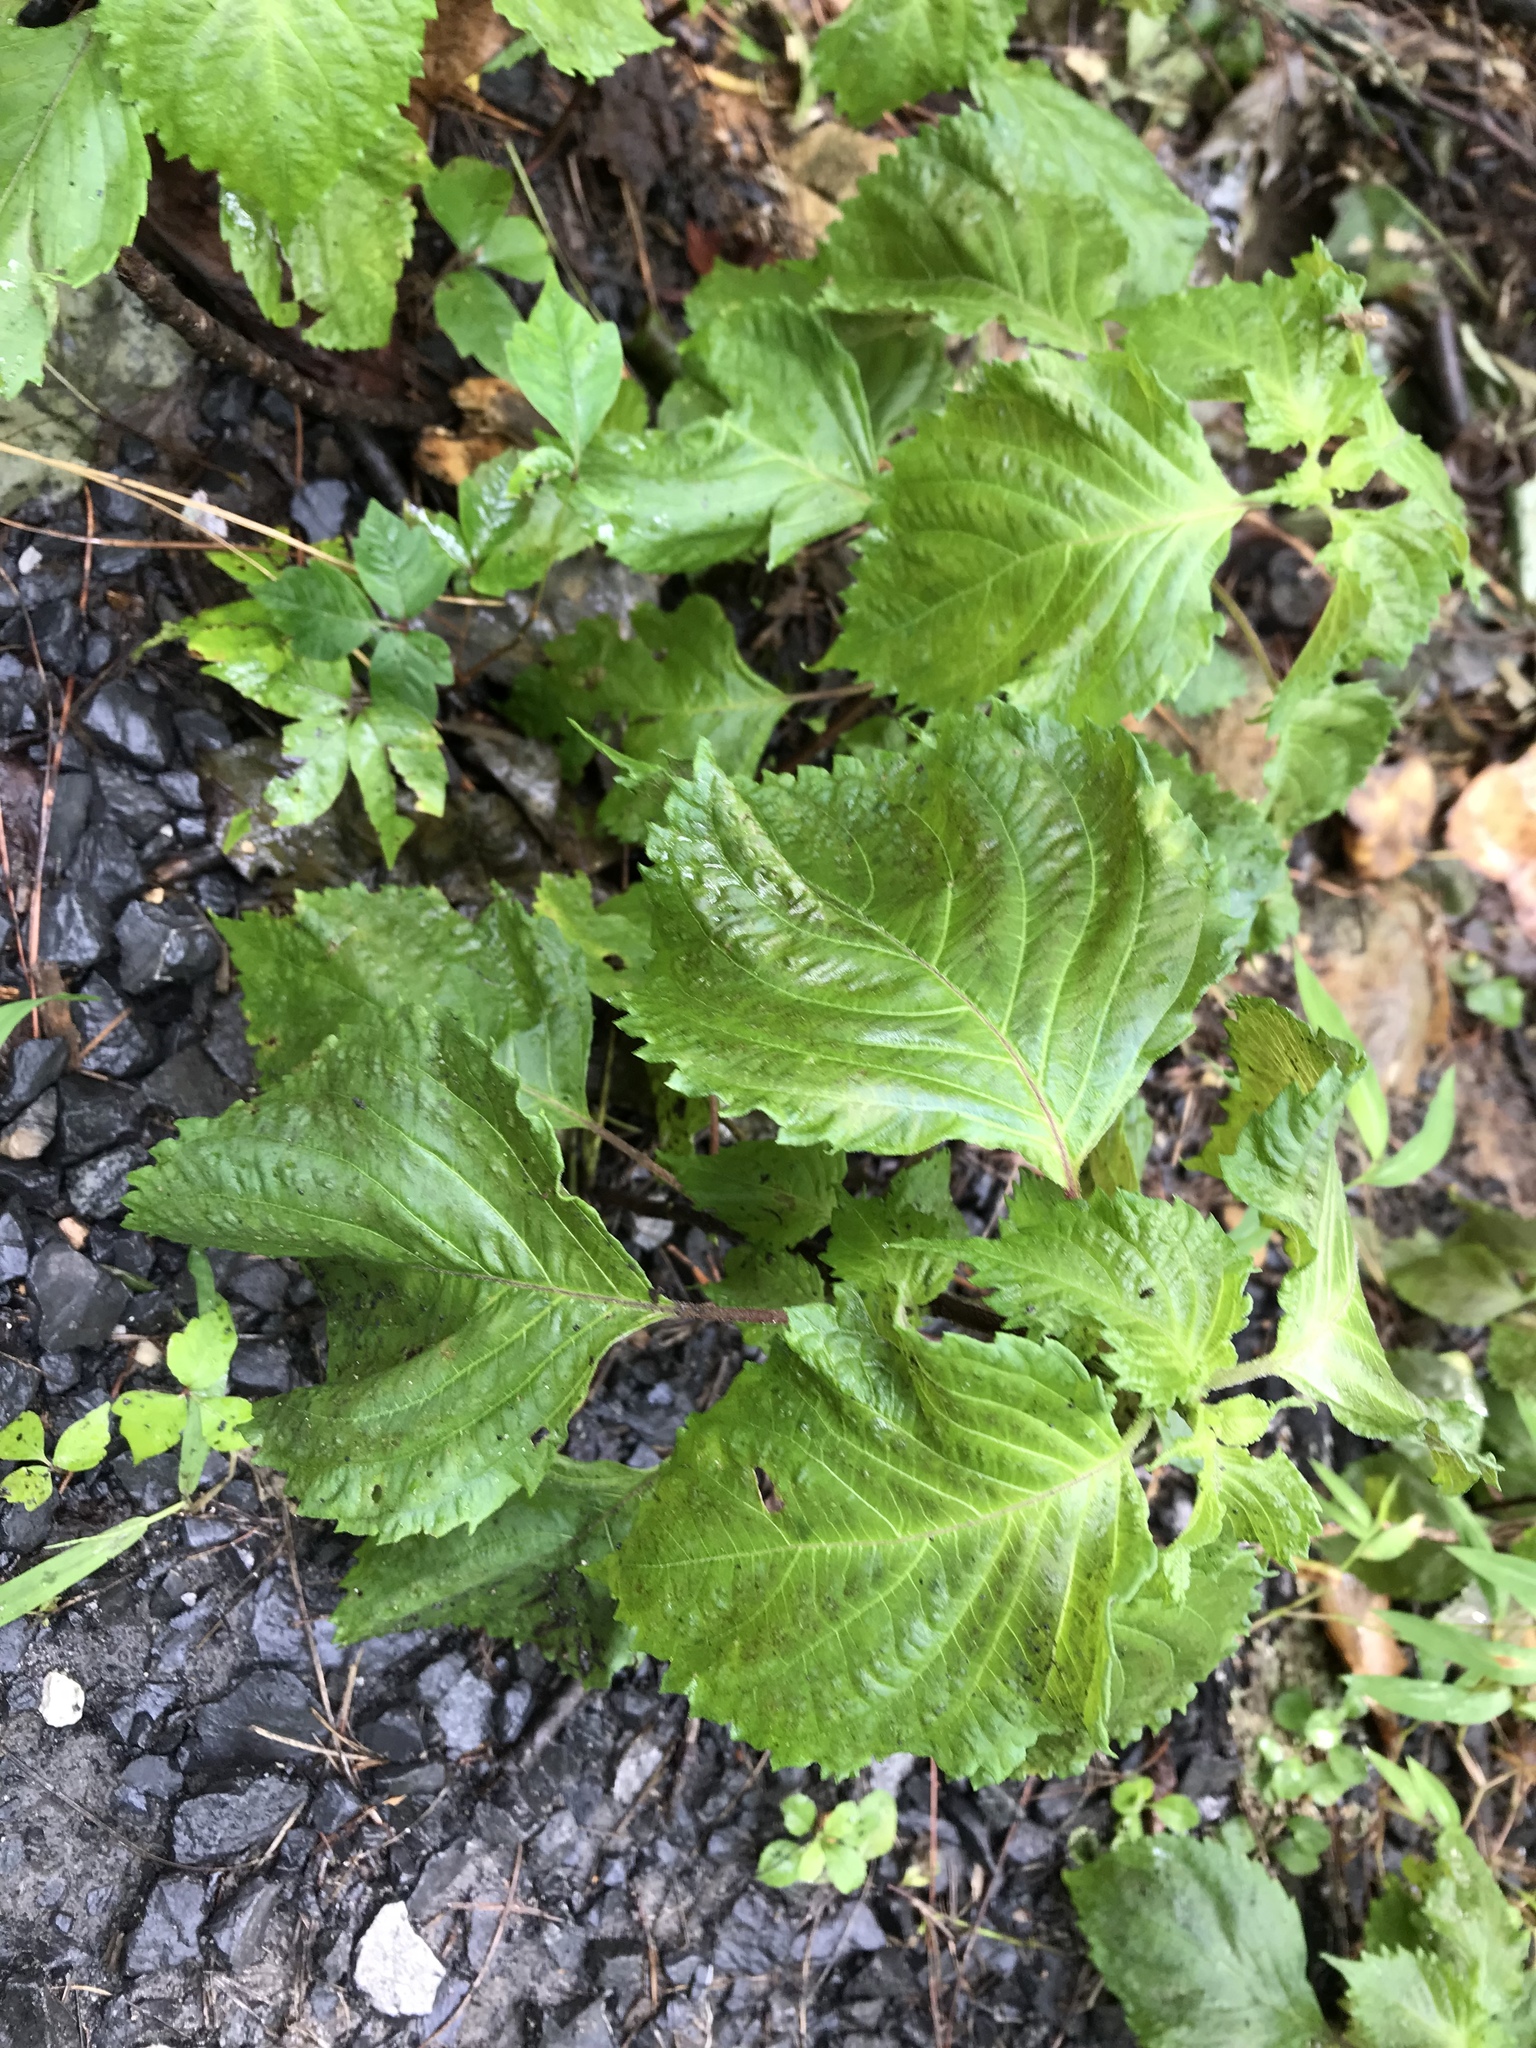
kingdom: Plantae
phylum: Tracheophyta
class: Magnoliopsida
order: Lamiales
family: Lamiaceae
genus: Perilla
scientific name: Perilla frutescens
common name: Perilla
